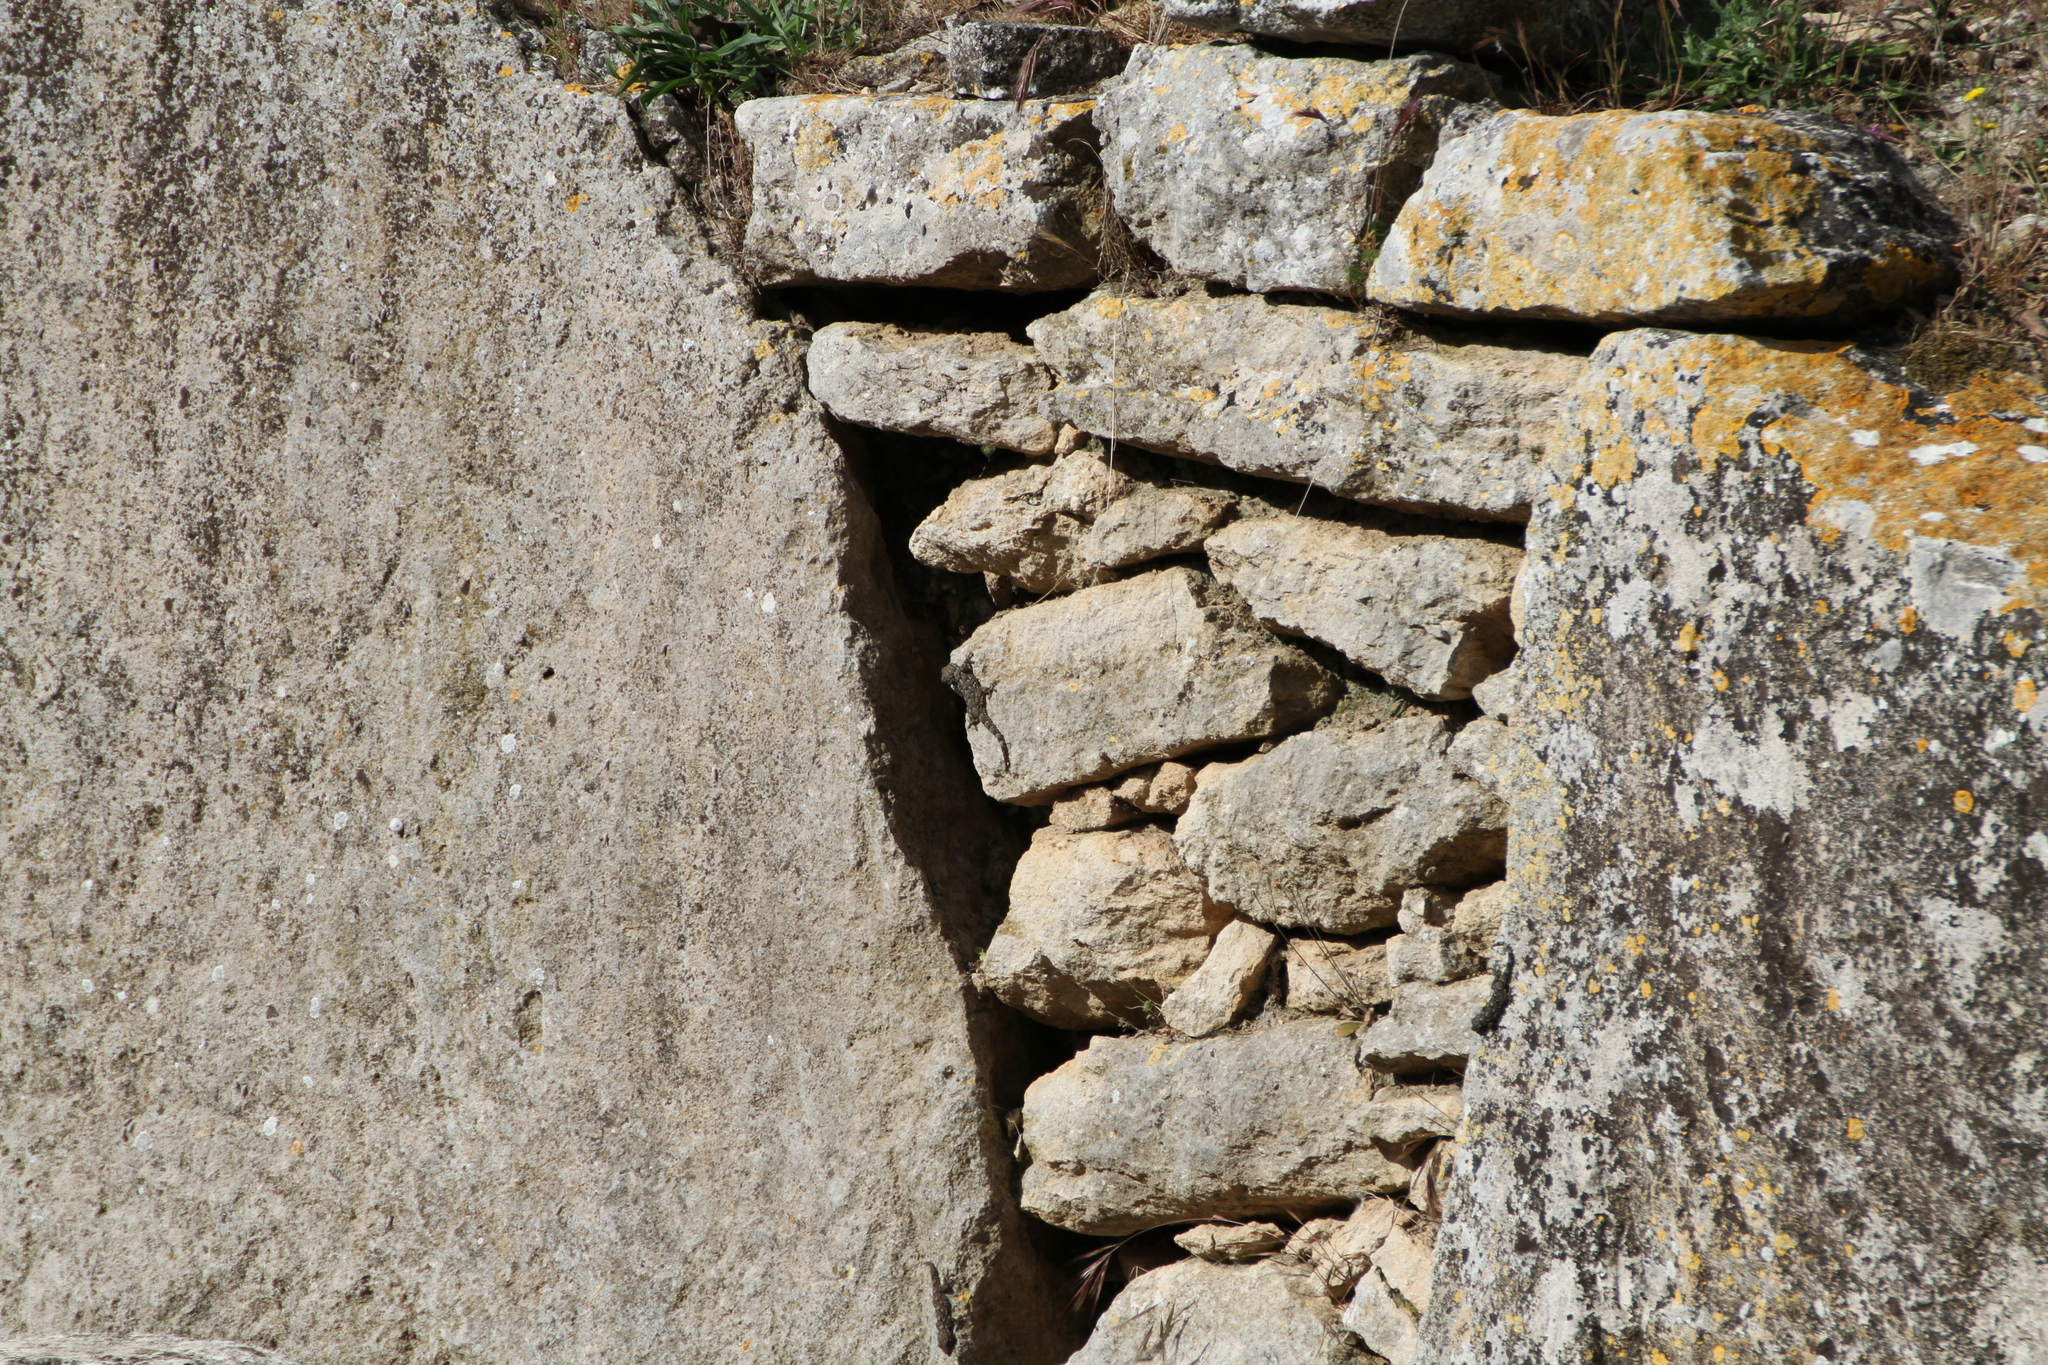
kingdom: Animalia
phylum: Chordata
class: Squamata
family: Phyllodactylidae
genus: Tarentola
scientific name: Tarentola mauritanica
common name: Moorish gecko
